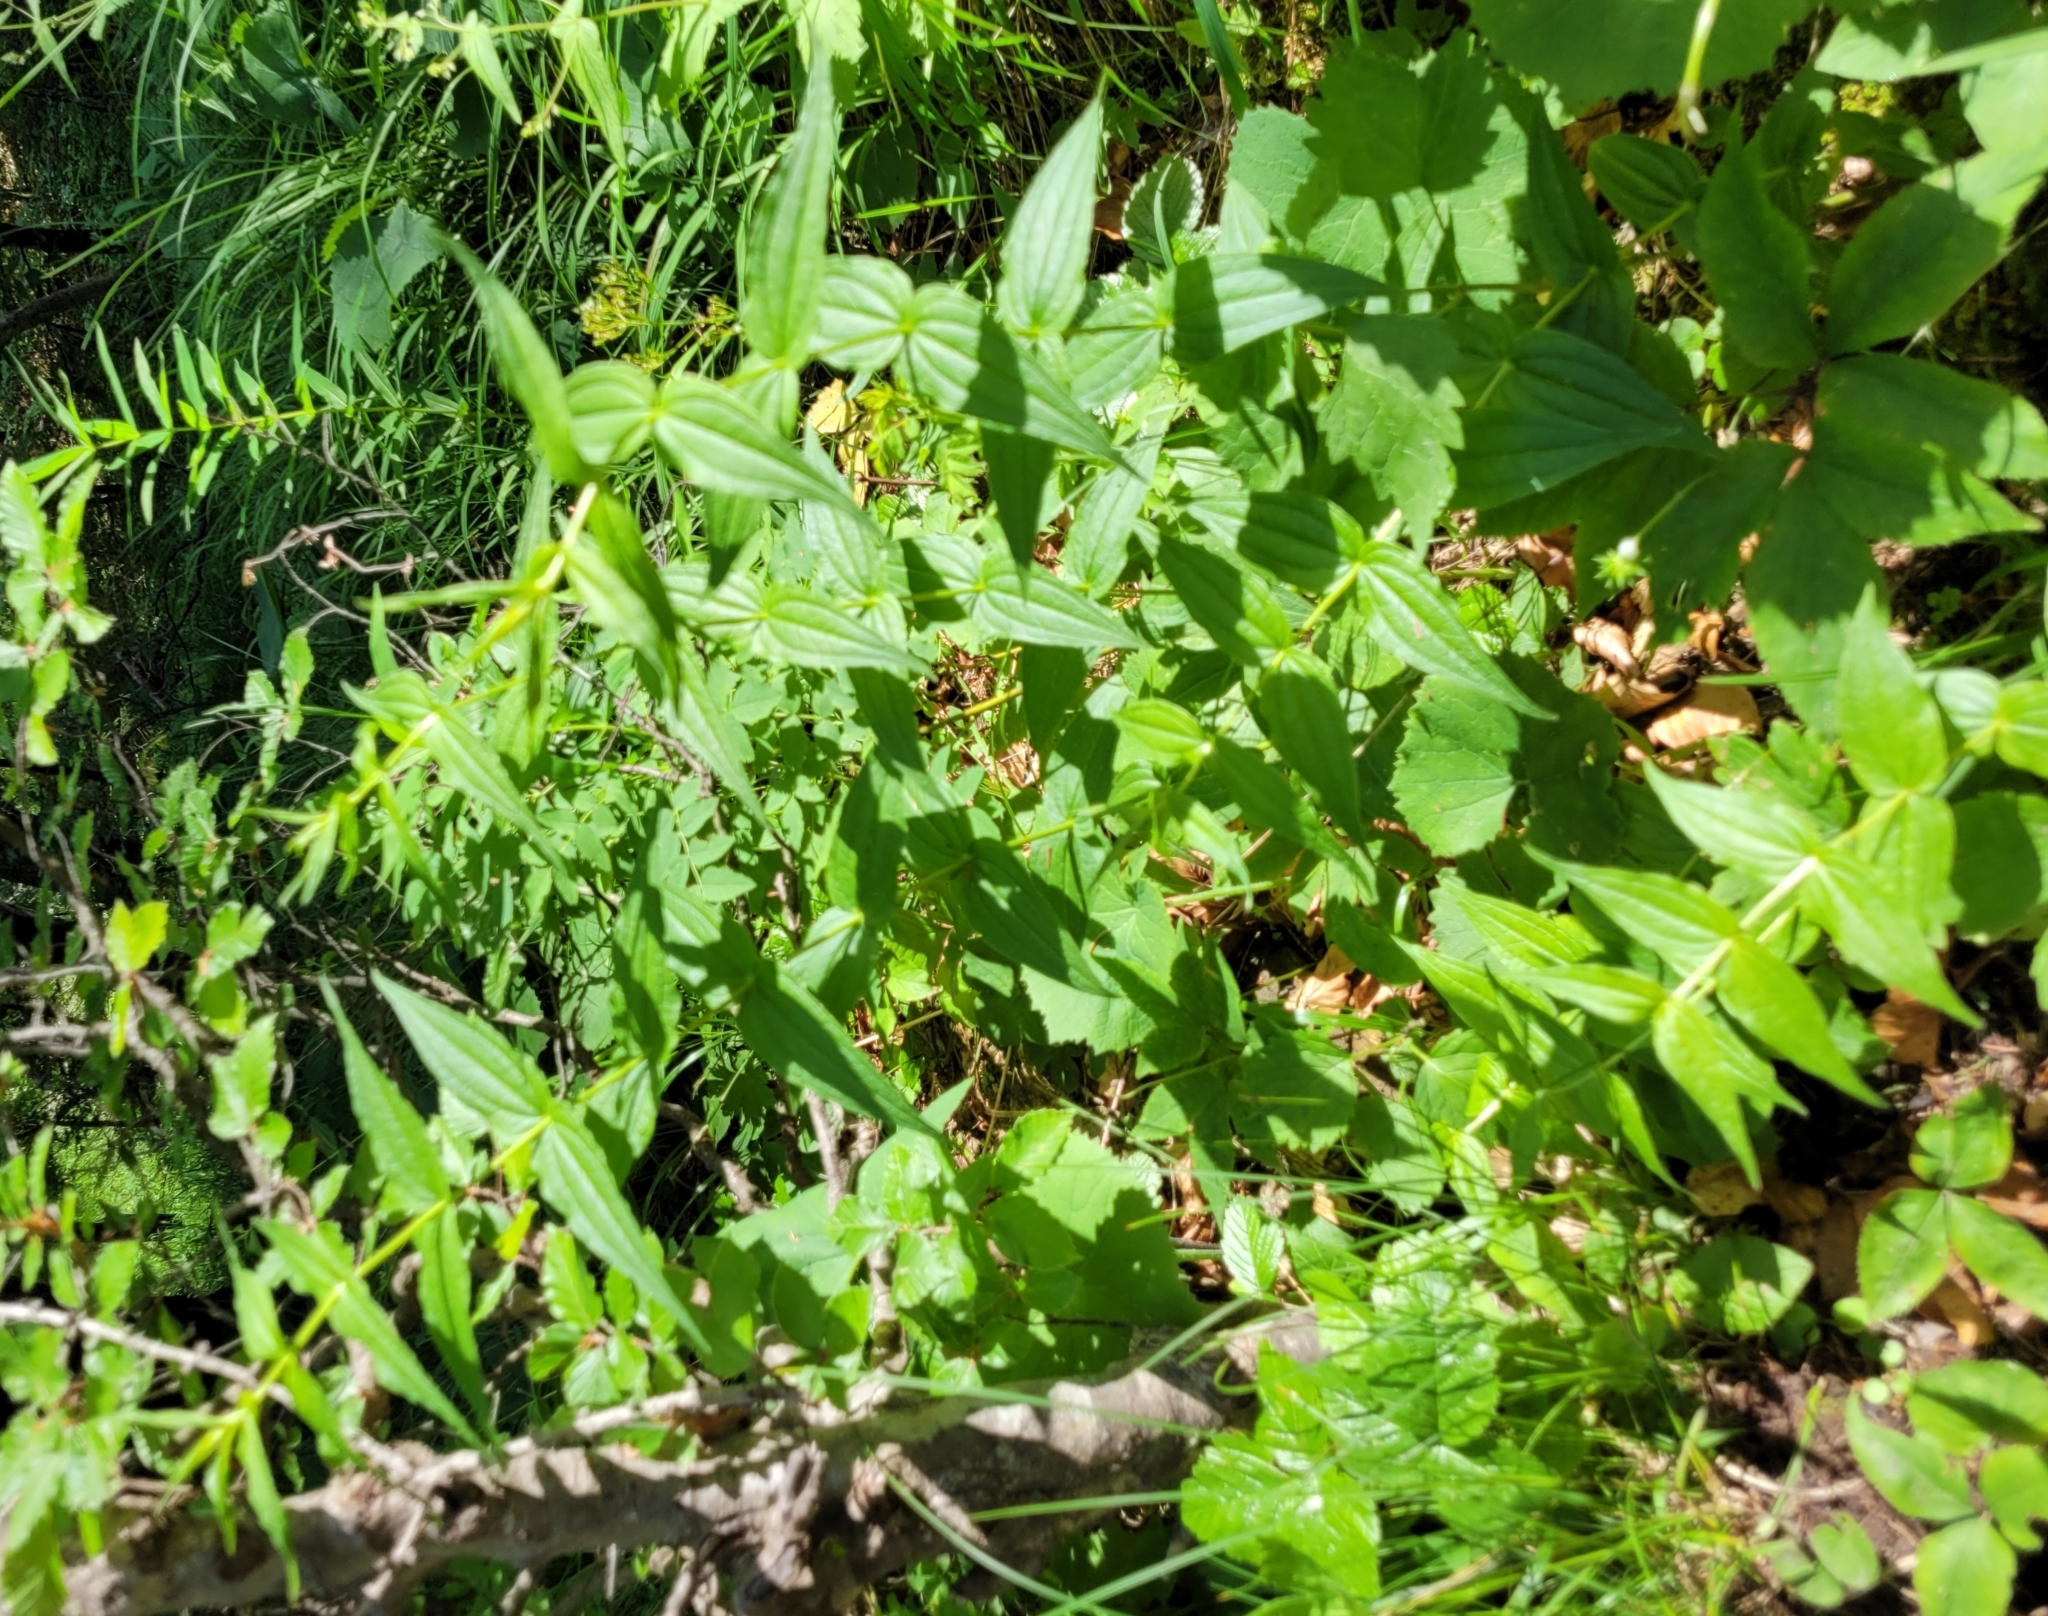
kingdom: Plantae
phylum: Tracheophyta
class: Magnoliopsida
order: Gentianales
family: Gentianaceae
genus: Gentiana
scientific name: Gentiana asclepiadea
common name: Willow gentian
